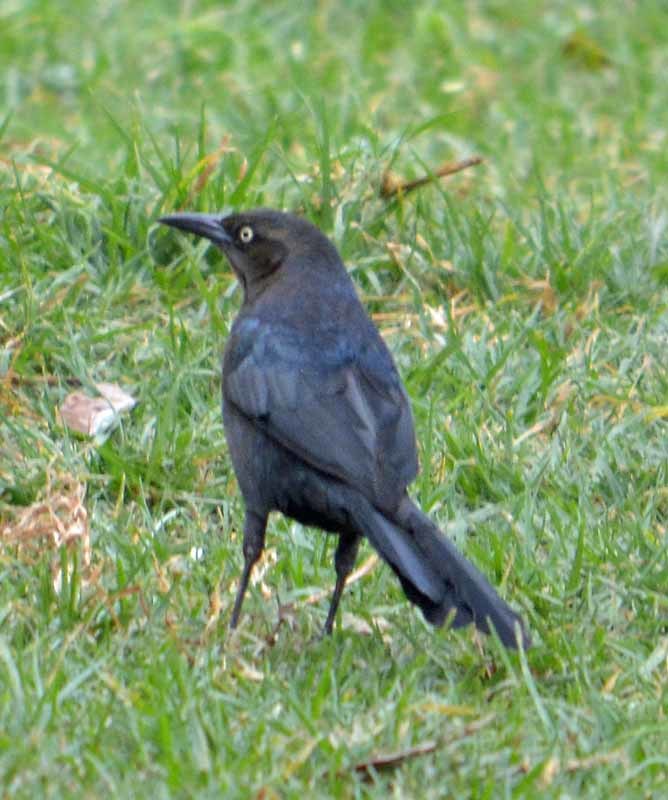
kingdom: Animalia
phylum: Chordata
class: Aves
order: Passeriformes
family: Icteridae
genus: Quiscalus
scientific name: Quiscalus mexicanus
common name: Great-tailed grackle
